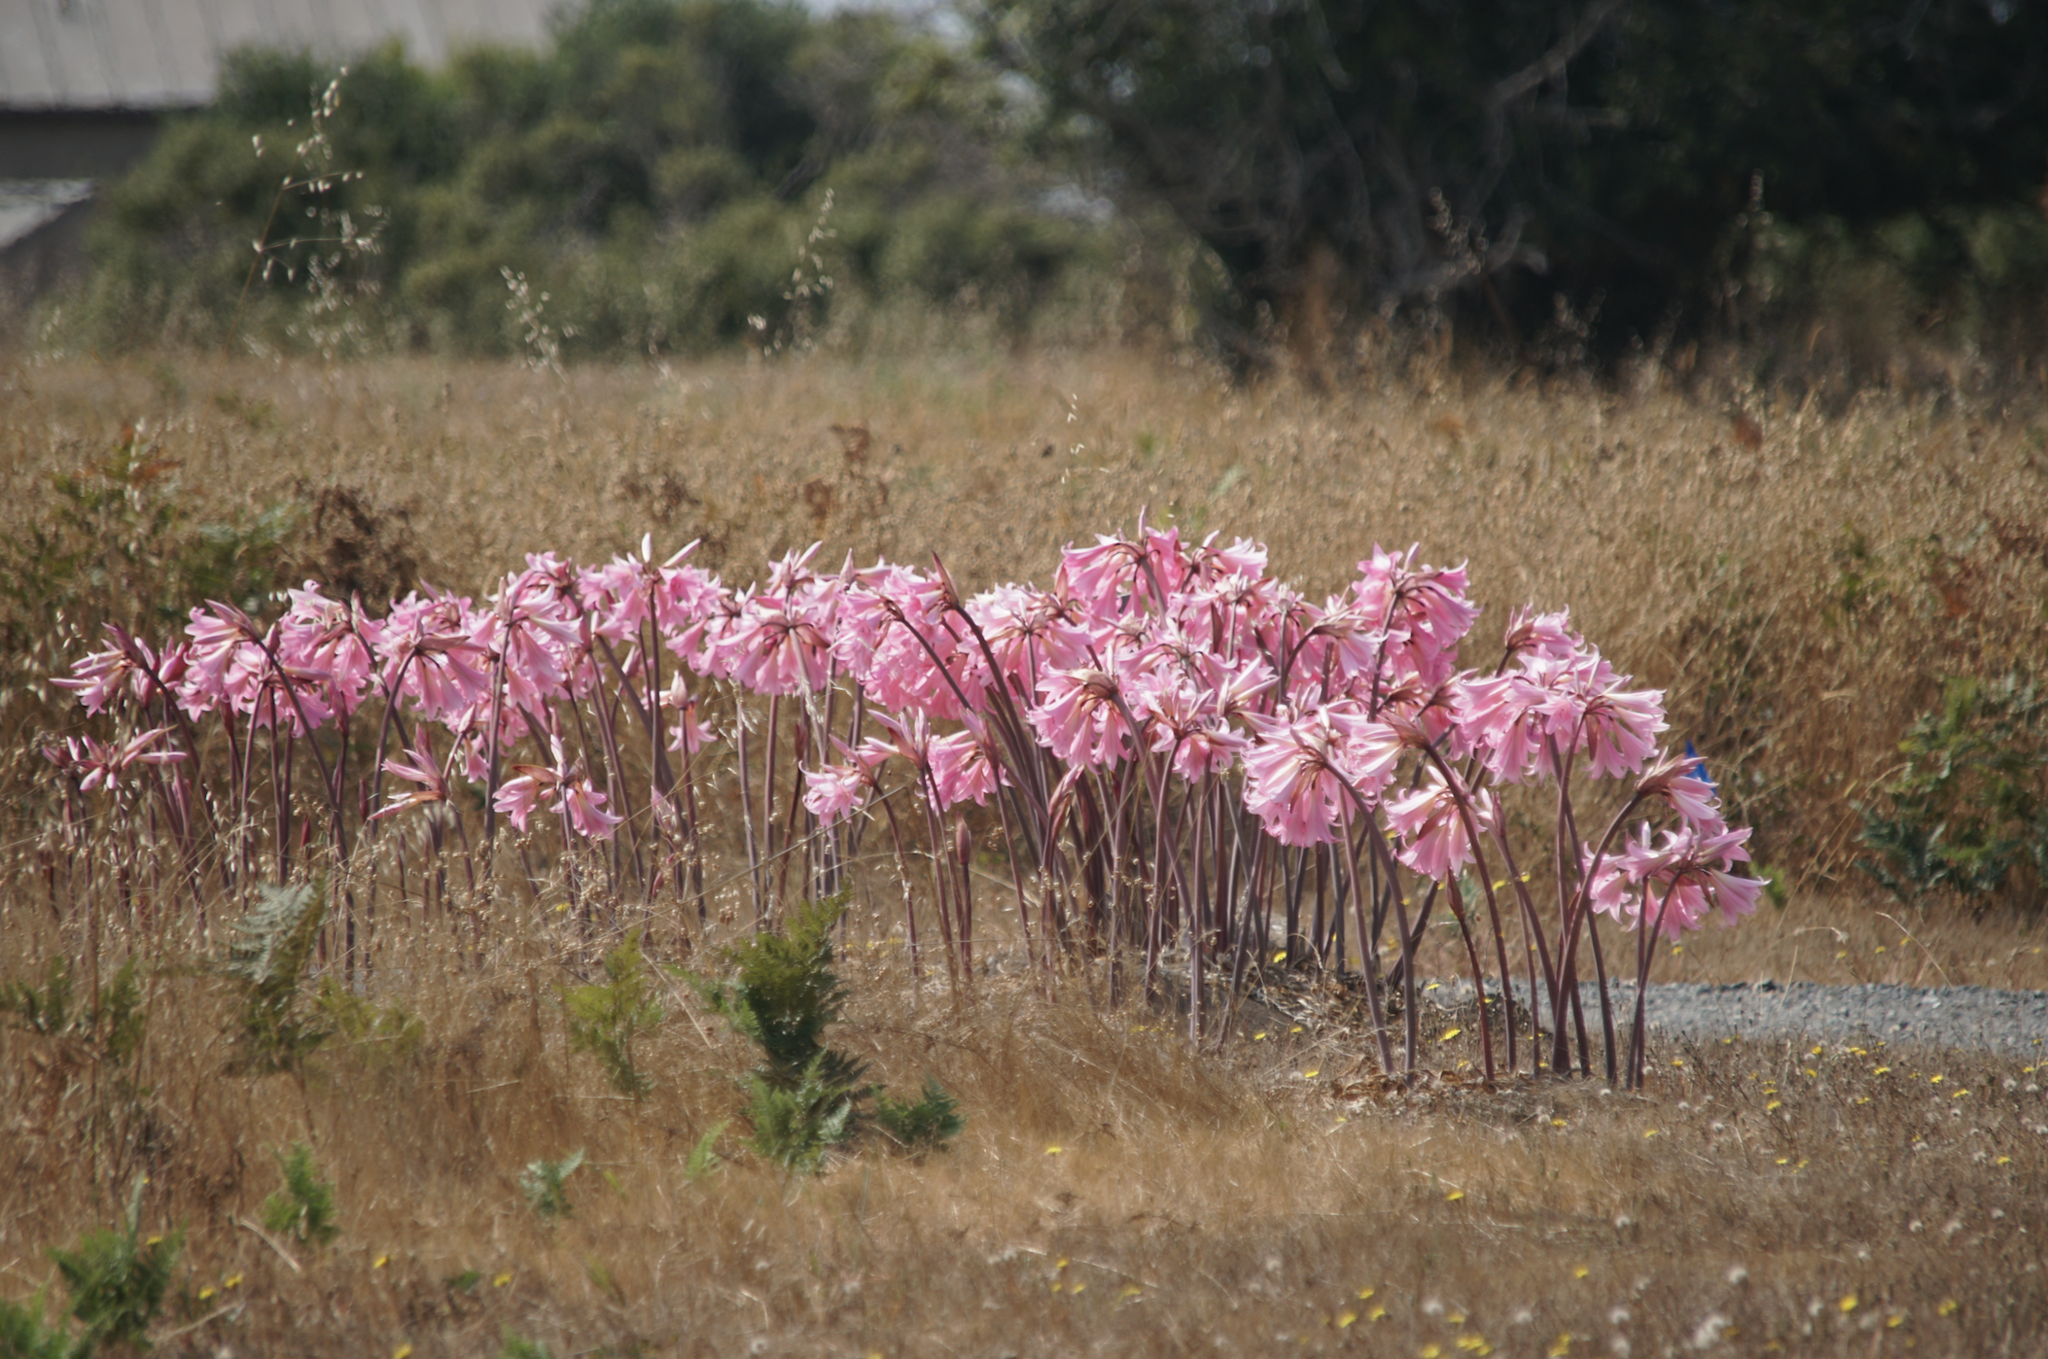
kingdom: Plantae
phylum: Tracheophyta
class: Liliopsida
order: Asparagales
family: Amaryllidaceae
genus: Amaryllis
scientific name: Amaryllis belladonna
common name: Jersey lily
